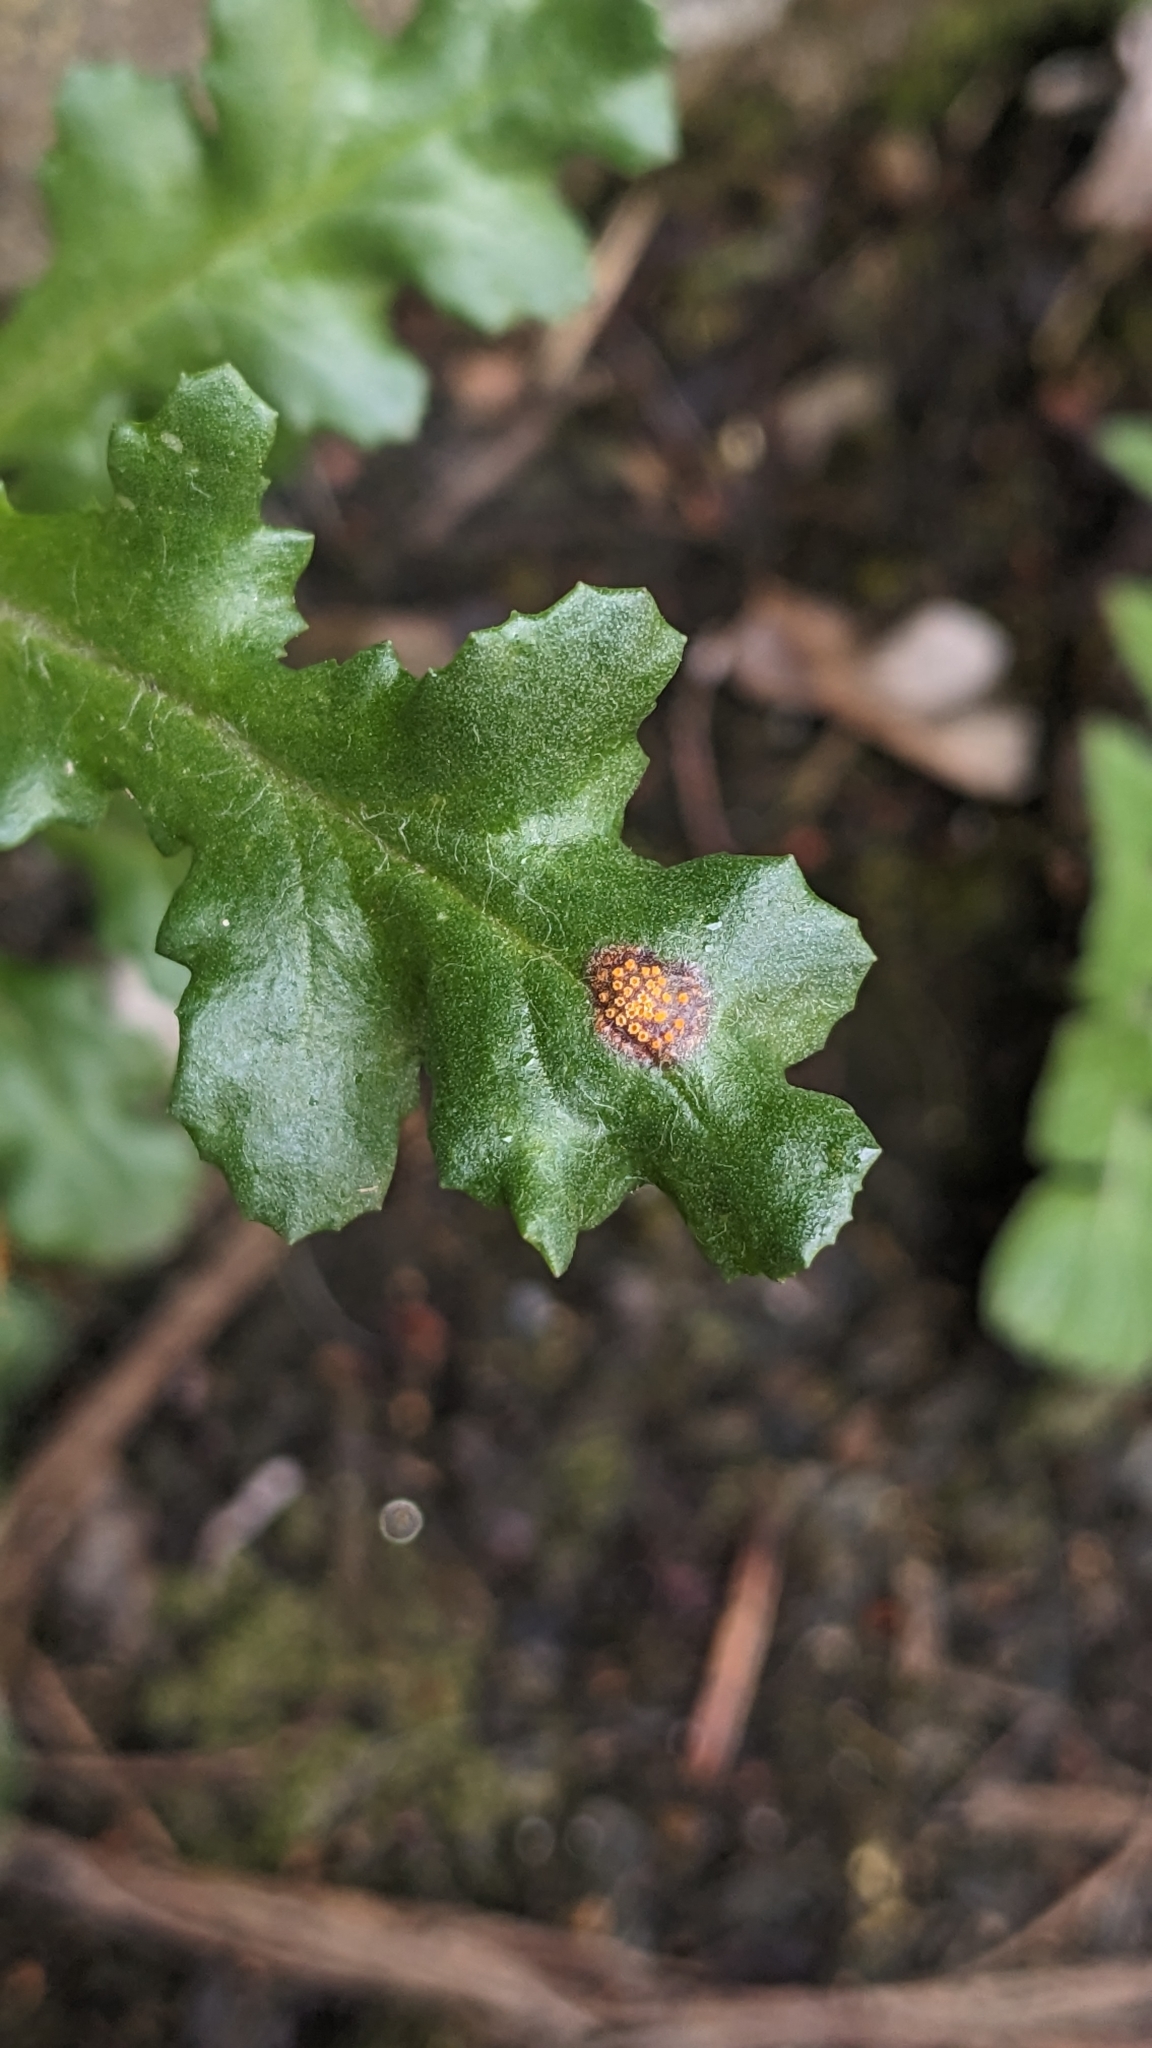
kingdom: Fungi
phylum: Basidiomycota
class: Pucciniomycetes
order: Pucciniales
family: Pucciniaceae
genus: Puccinia
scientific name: Puccinia lagenophorae
